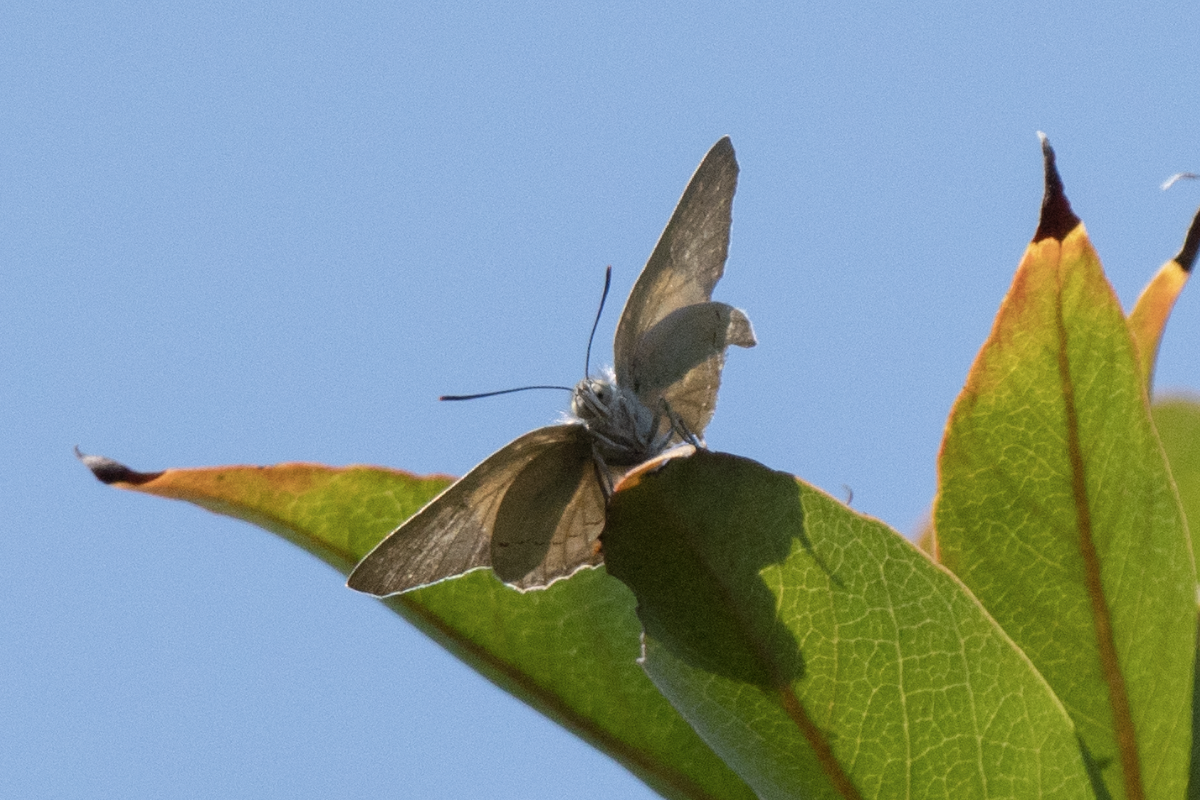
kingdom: Animalia
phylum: Arthropoda
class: Insecta
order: Lepidoptera
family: Lycaenidae
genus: Ancema
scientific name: Ancema blanka
